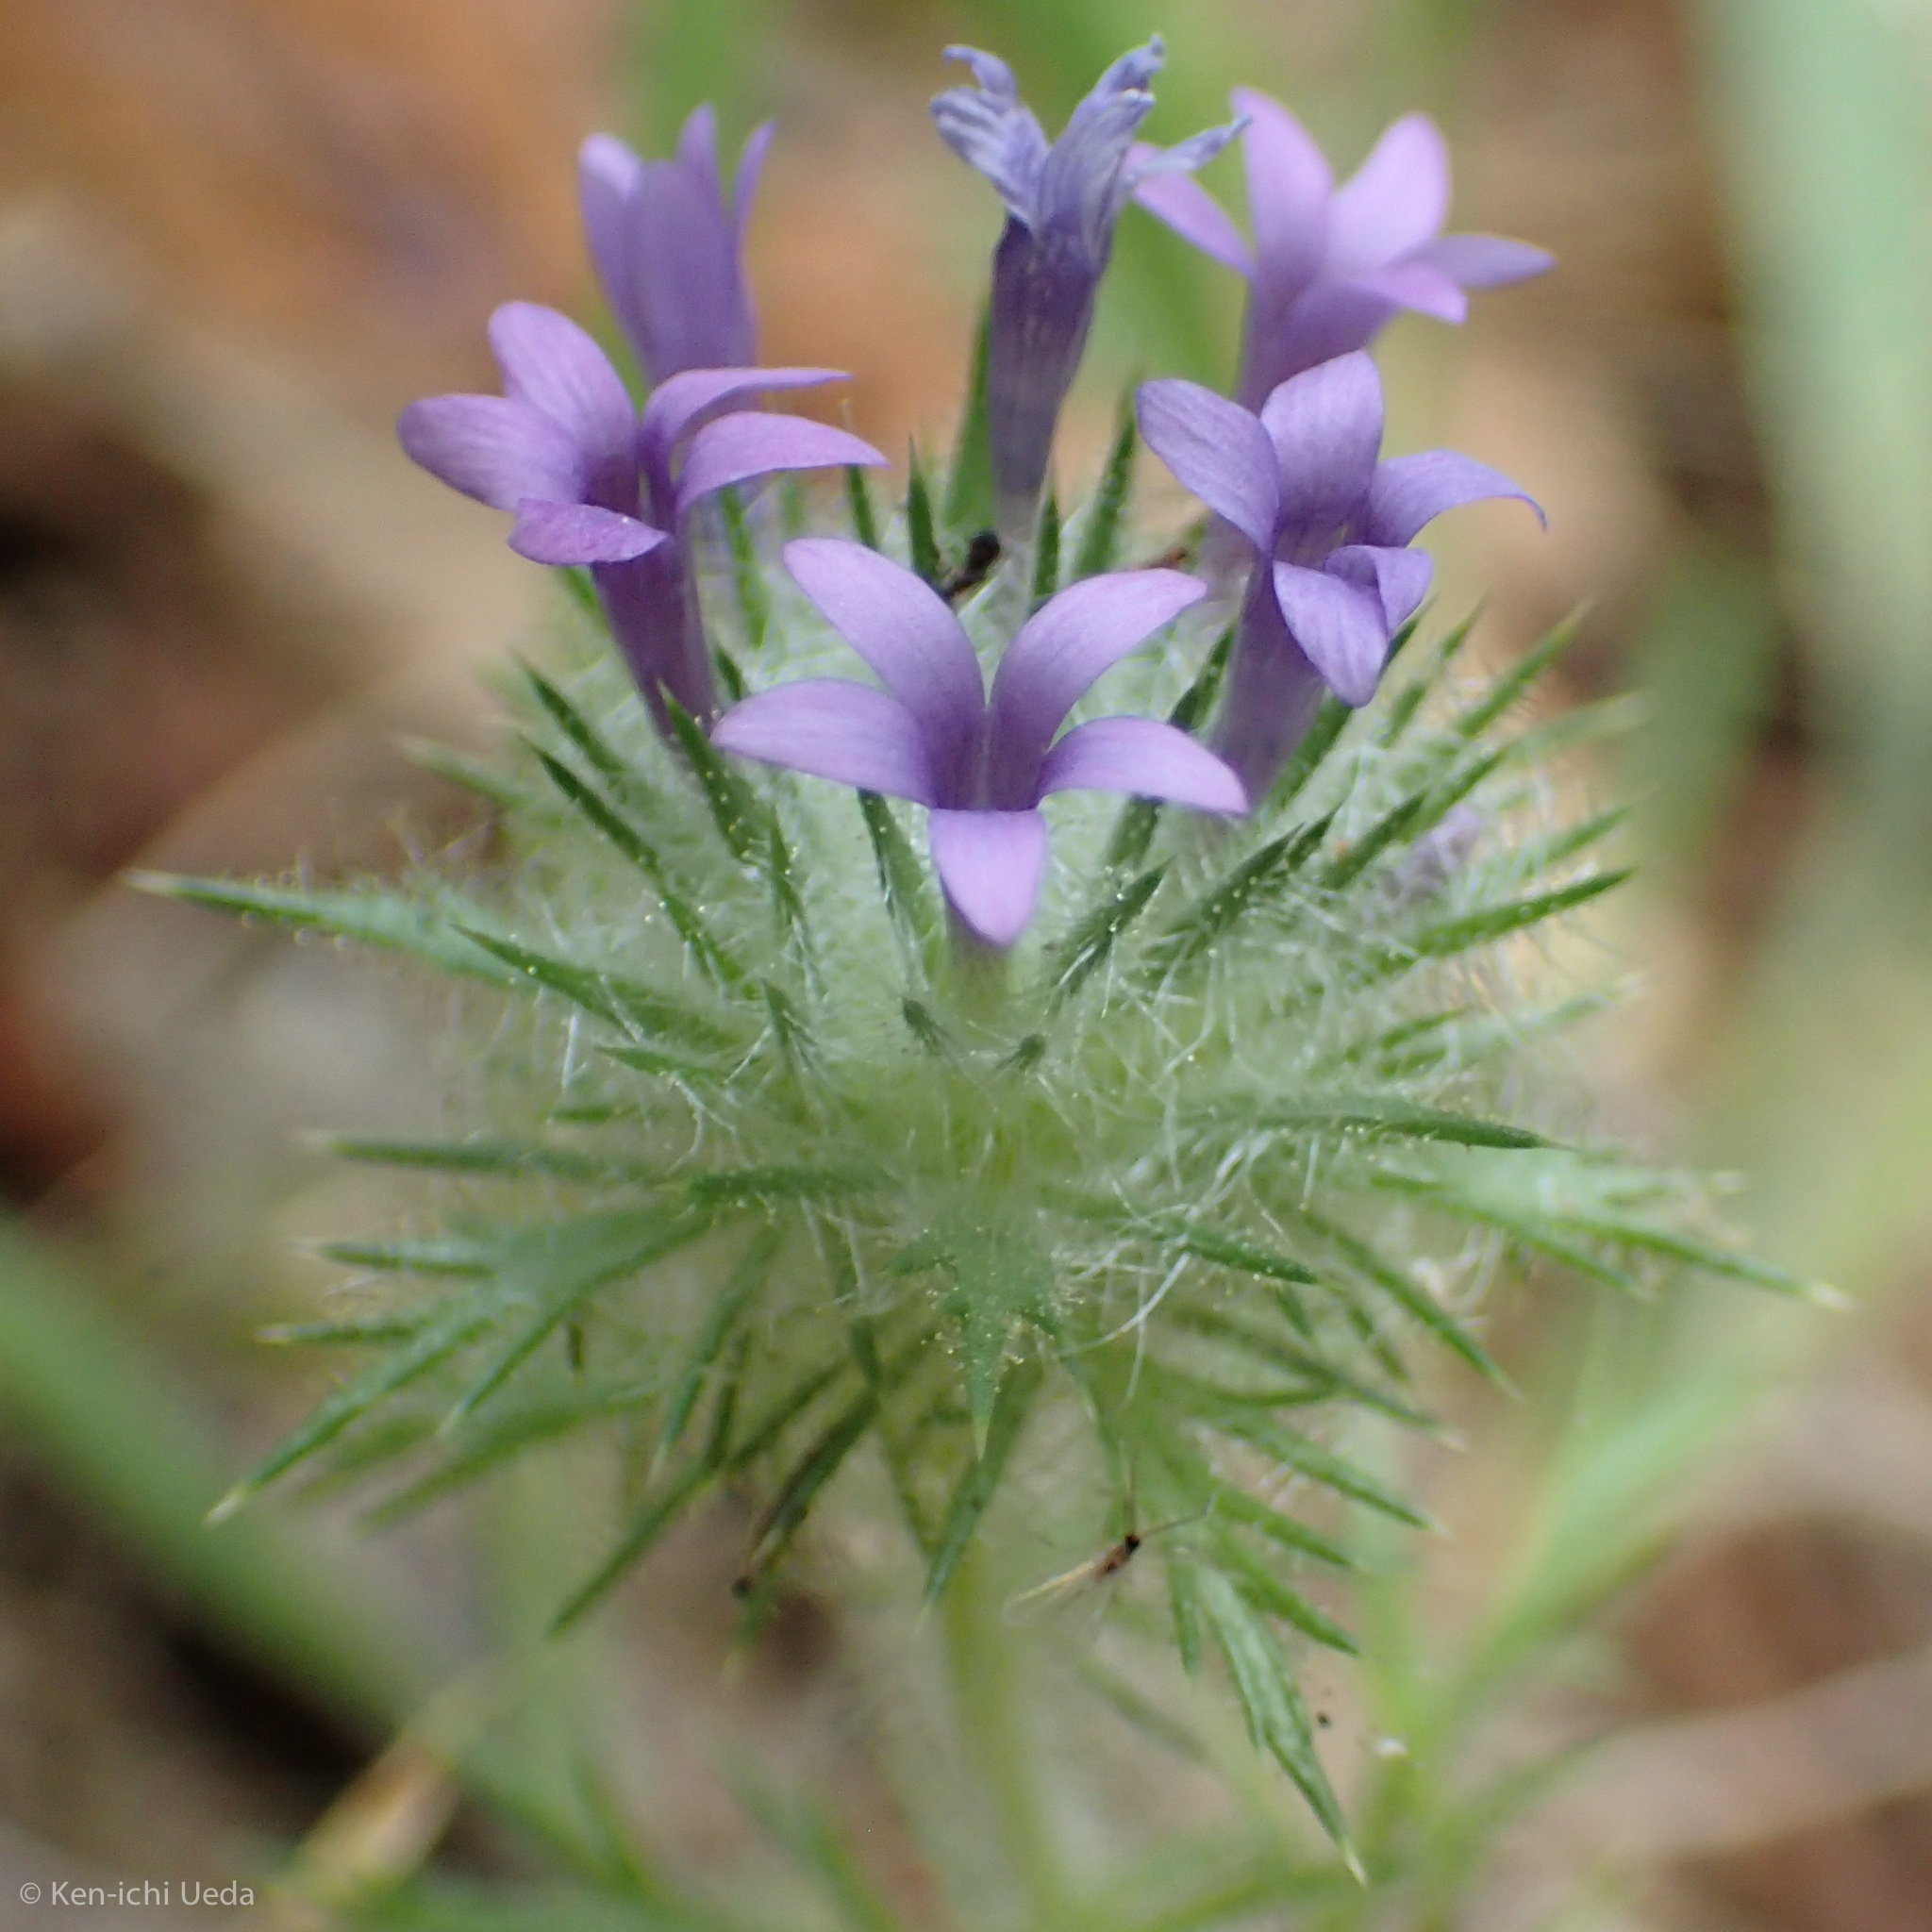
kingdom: Plantae
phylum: Tracheophyta
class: Magnoliopsida
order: Ericales
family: Polemoniaceae
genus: Navarretia
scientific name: Navarretia squarrosa
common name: Skunkweed
